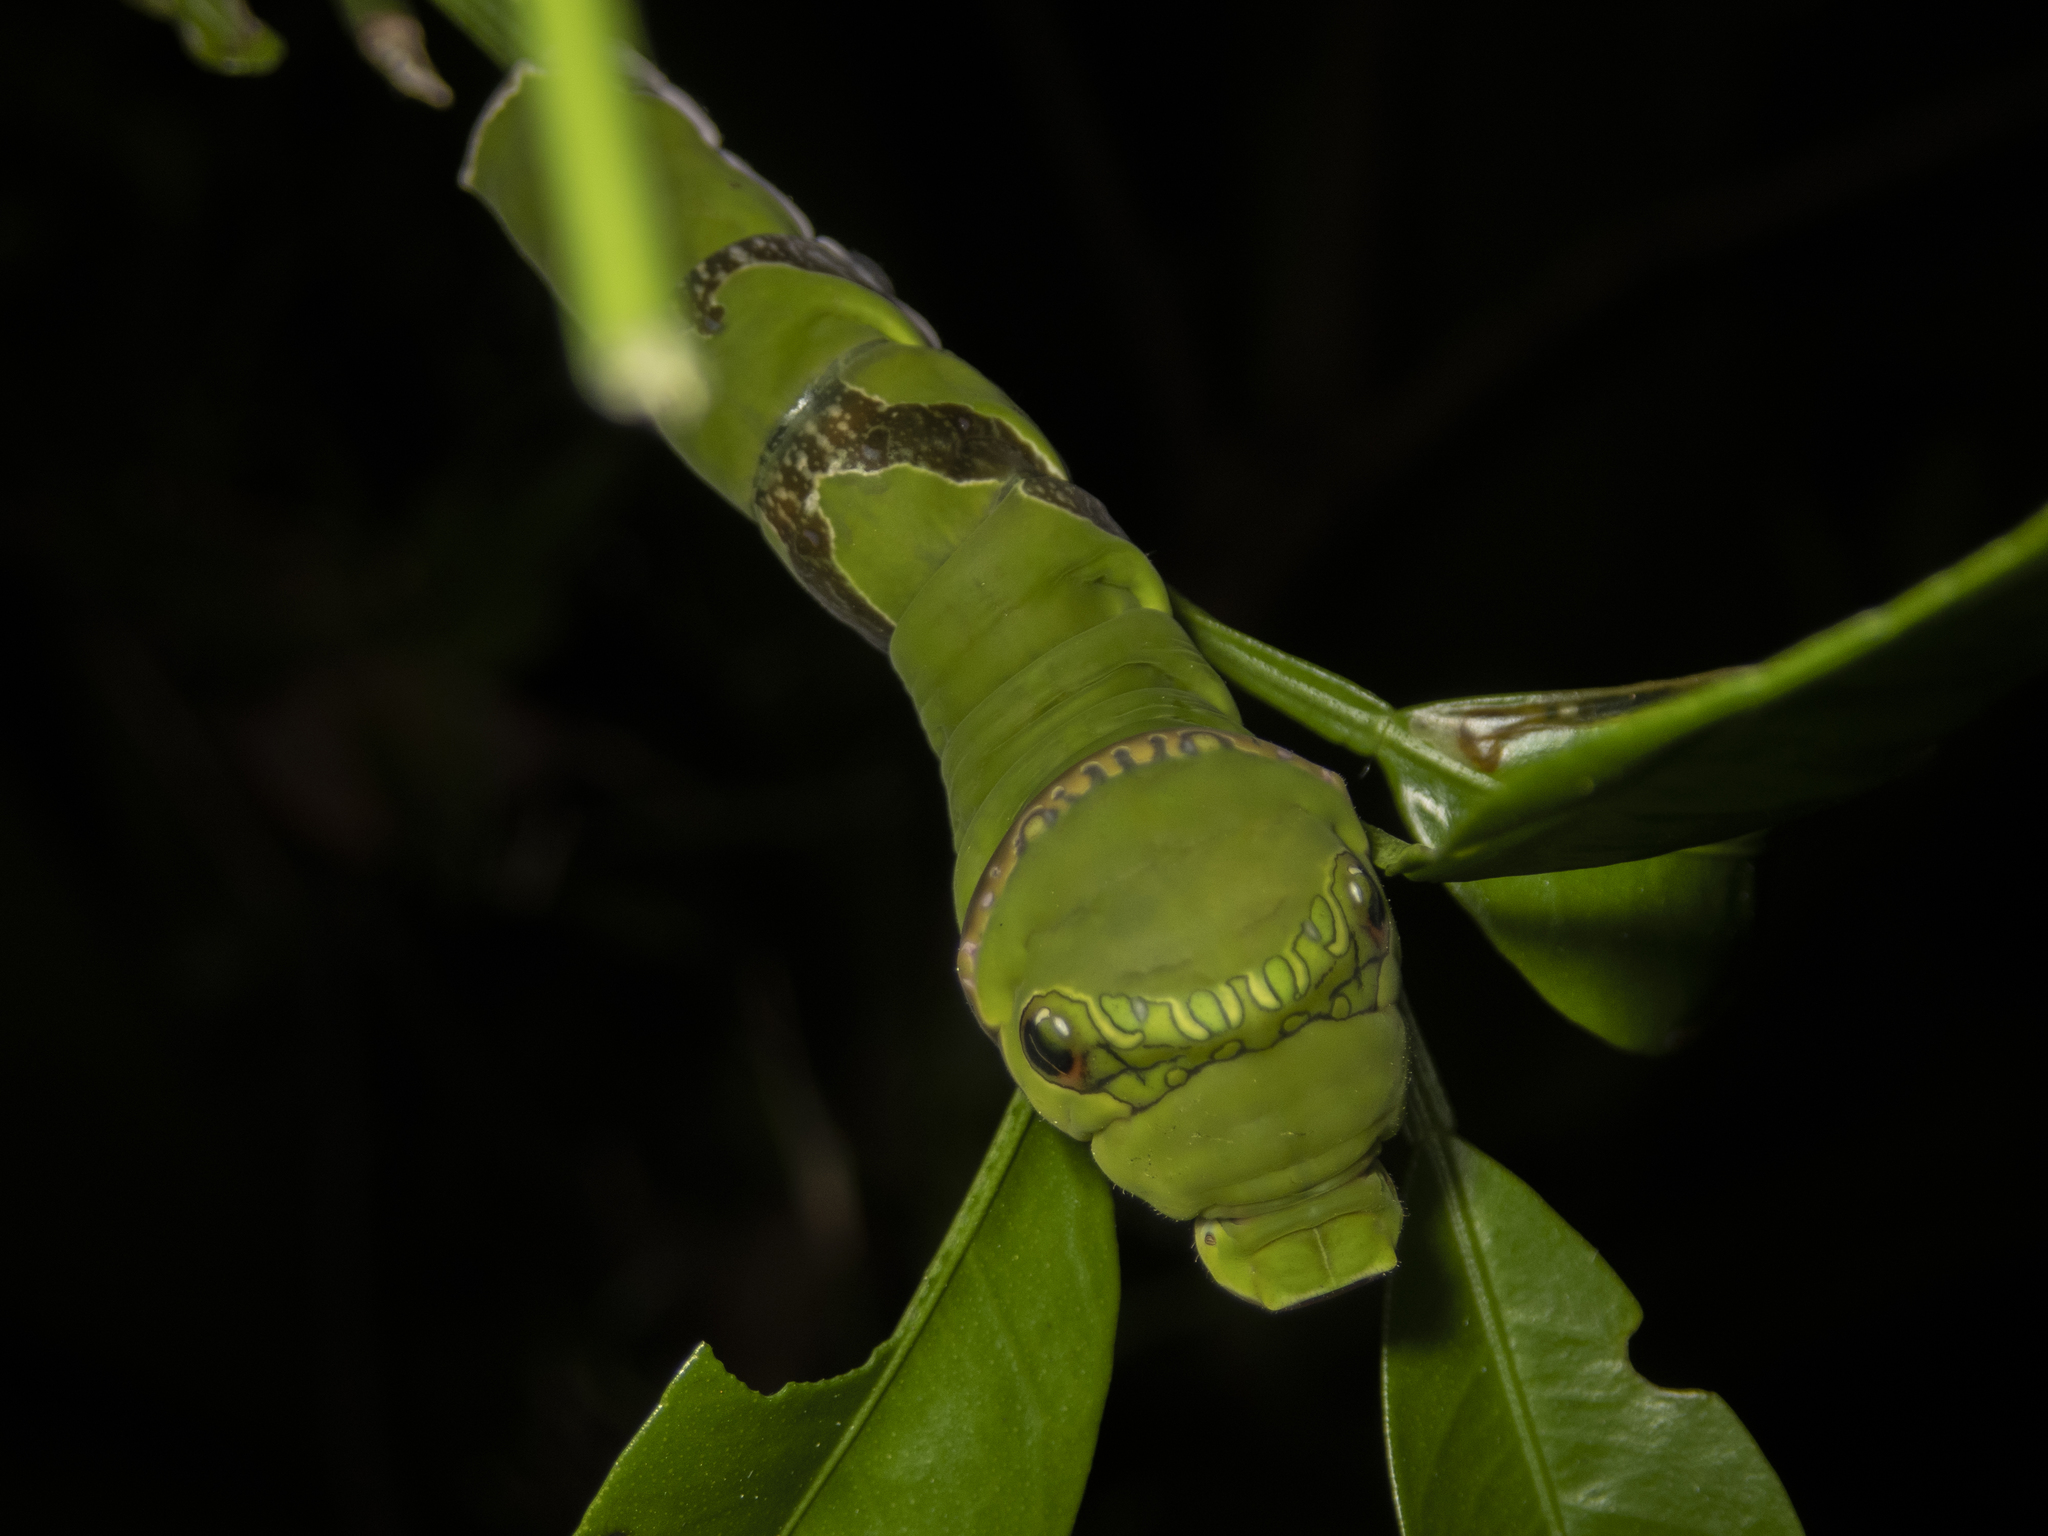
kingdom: Animalia
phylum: Arthropoda
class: Insecta
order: Lepidoptera
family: Papilionidae
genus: Papilio
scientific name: Papilio protenor
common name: Spangle
